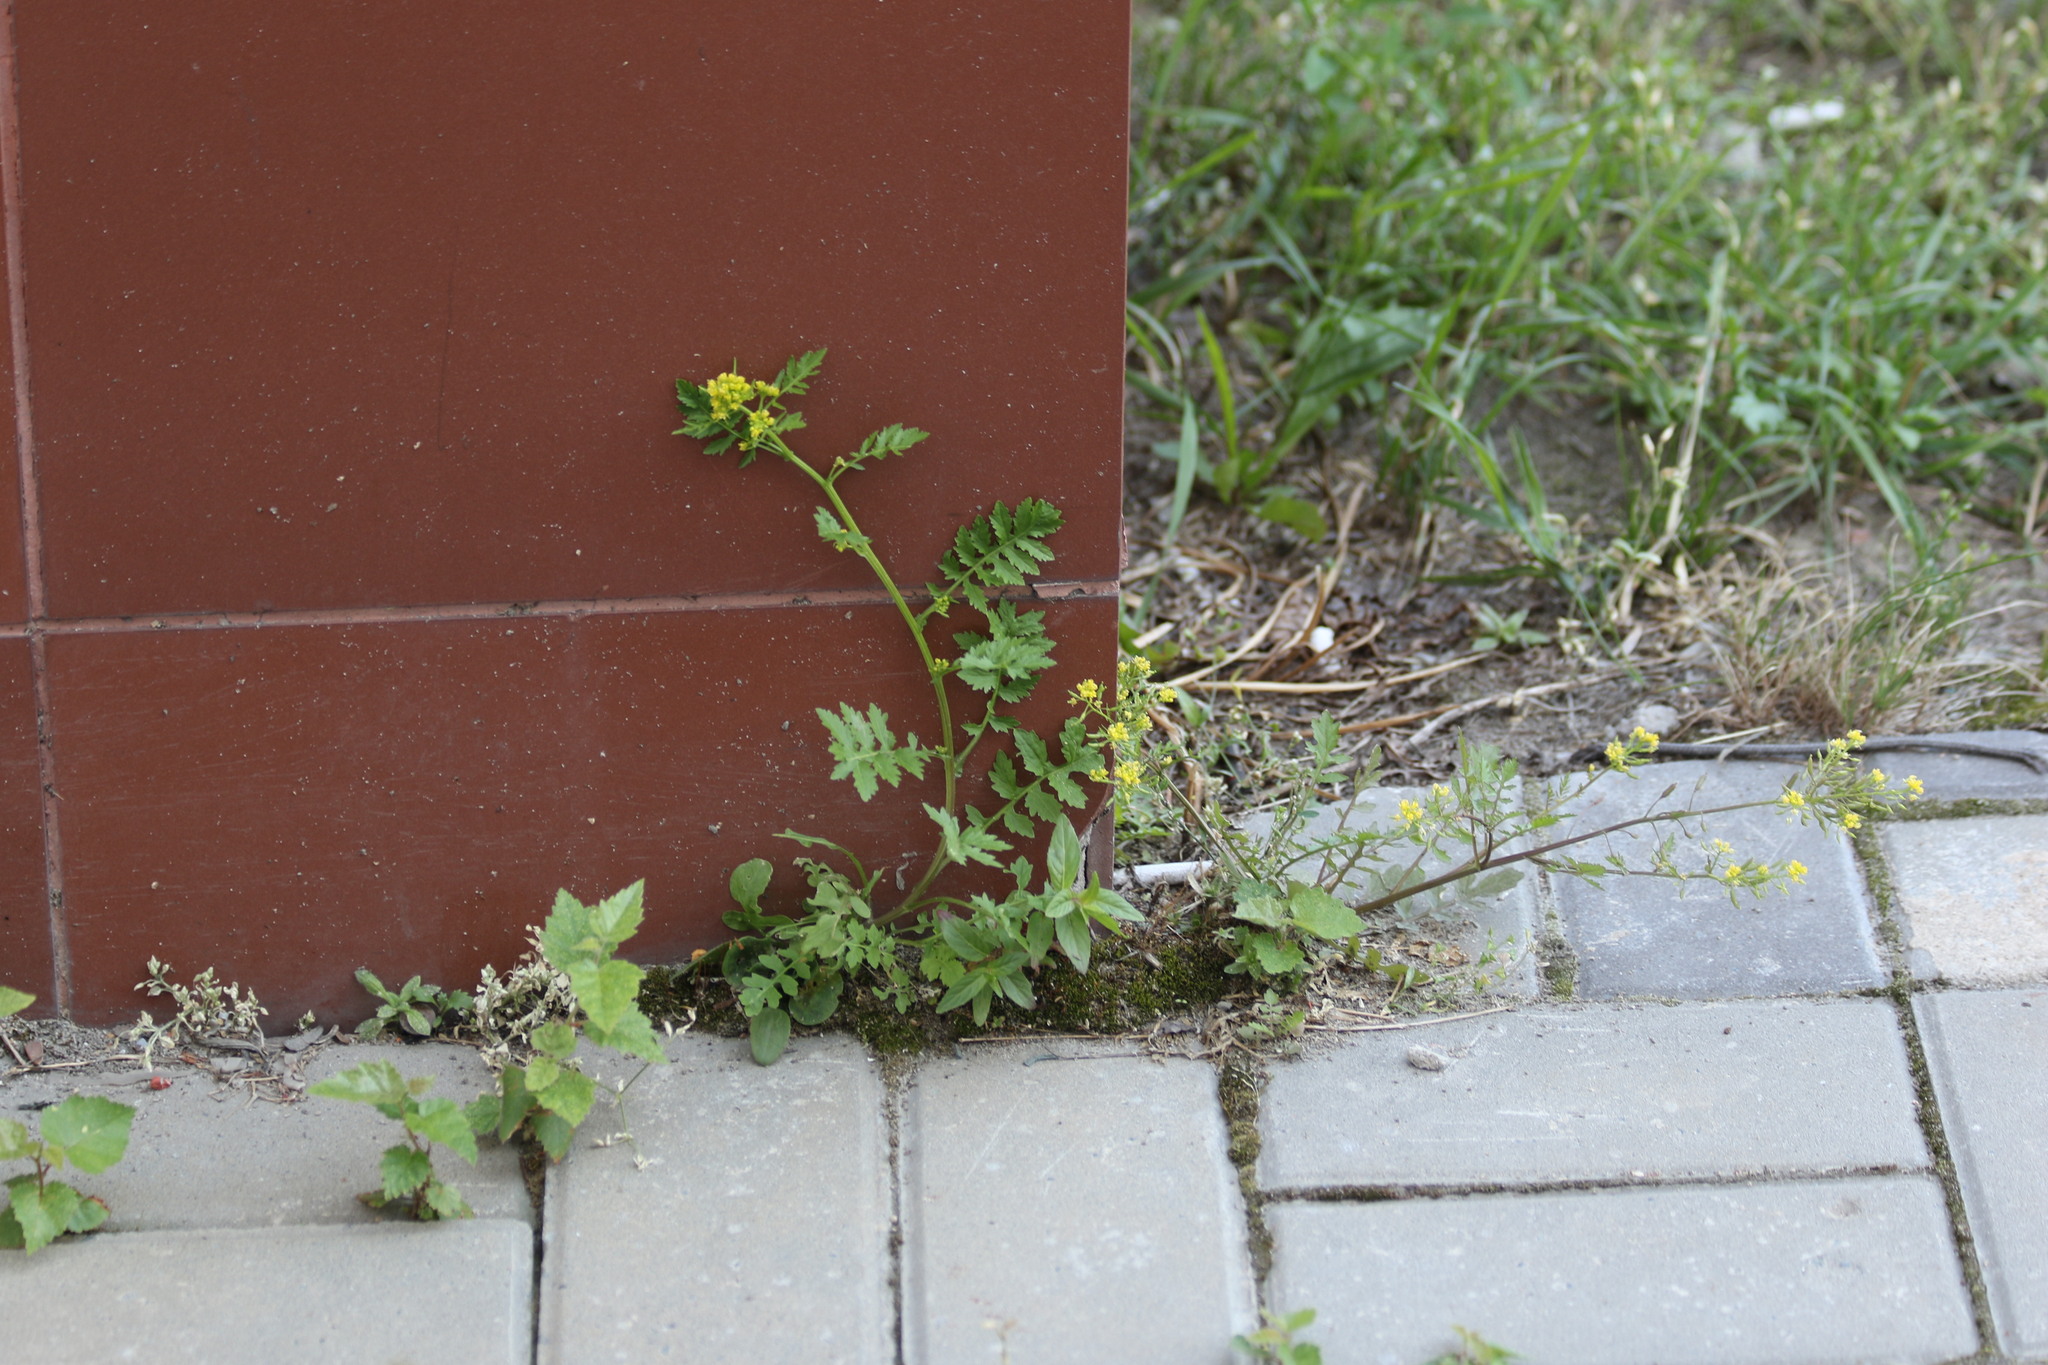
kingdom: Plantae
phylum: Tracheophyta
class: Magnoliopsida
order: Brassicales
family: Brassicaceae
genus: Rorippa
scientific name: Rorippa palustris
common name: Marsh yellow-cress
